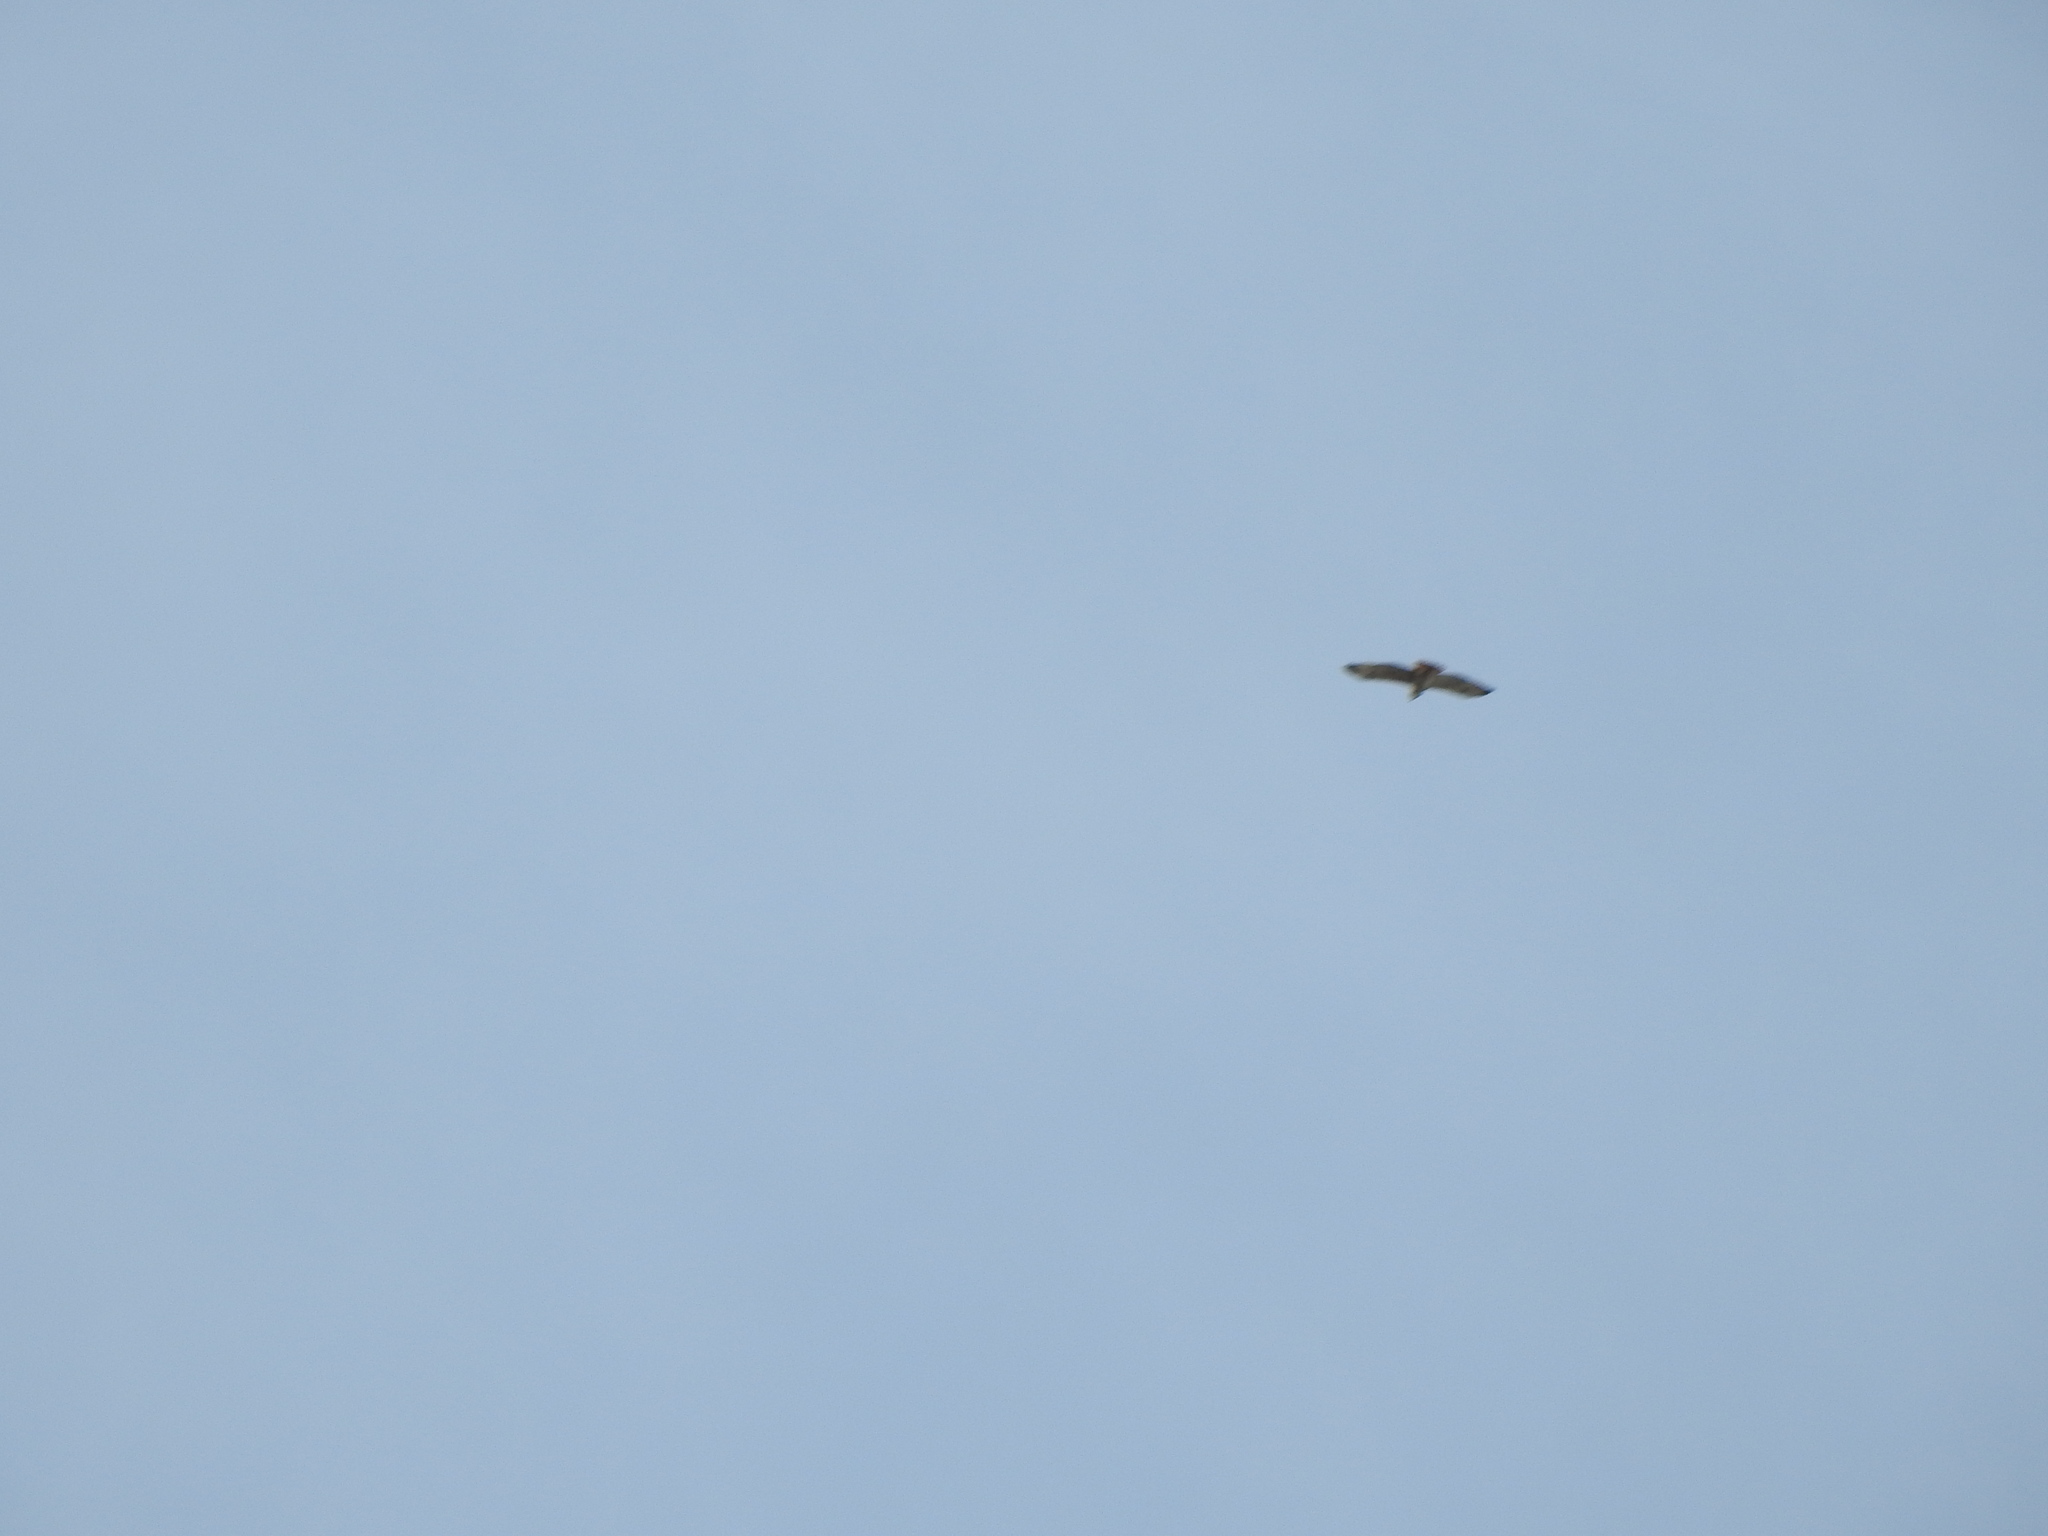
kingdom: Animalia
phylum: Chordata
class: Aves
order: Accipitriformes
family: Accipitridae
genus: Buteo
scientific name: Buteo jamaicensis
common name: Red-tailed hawk
